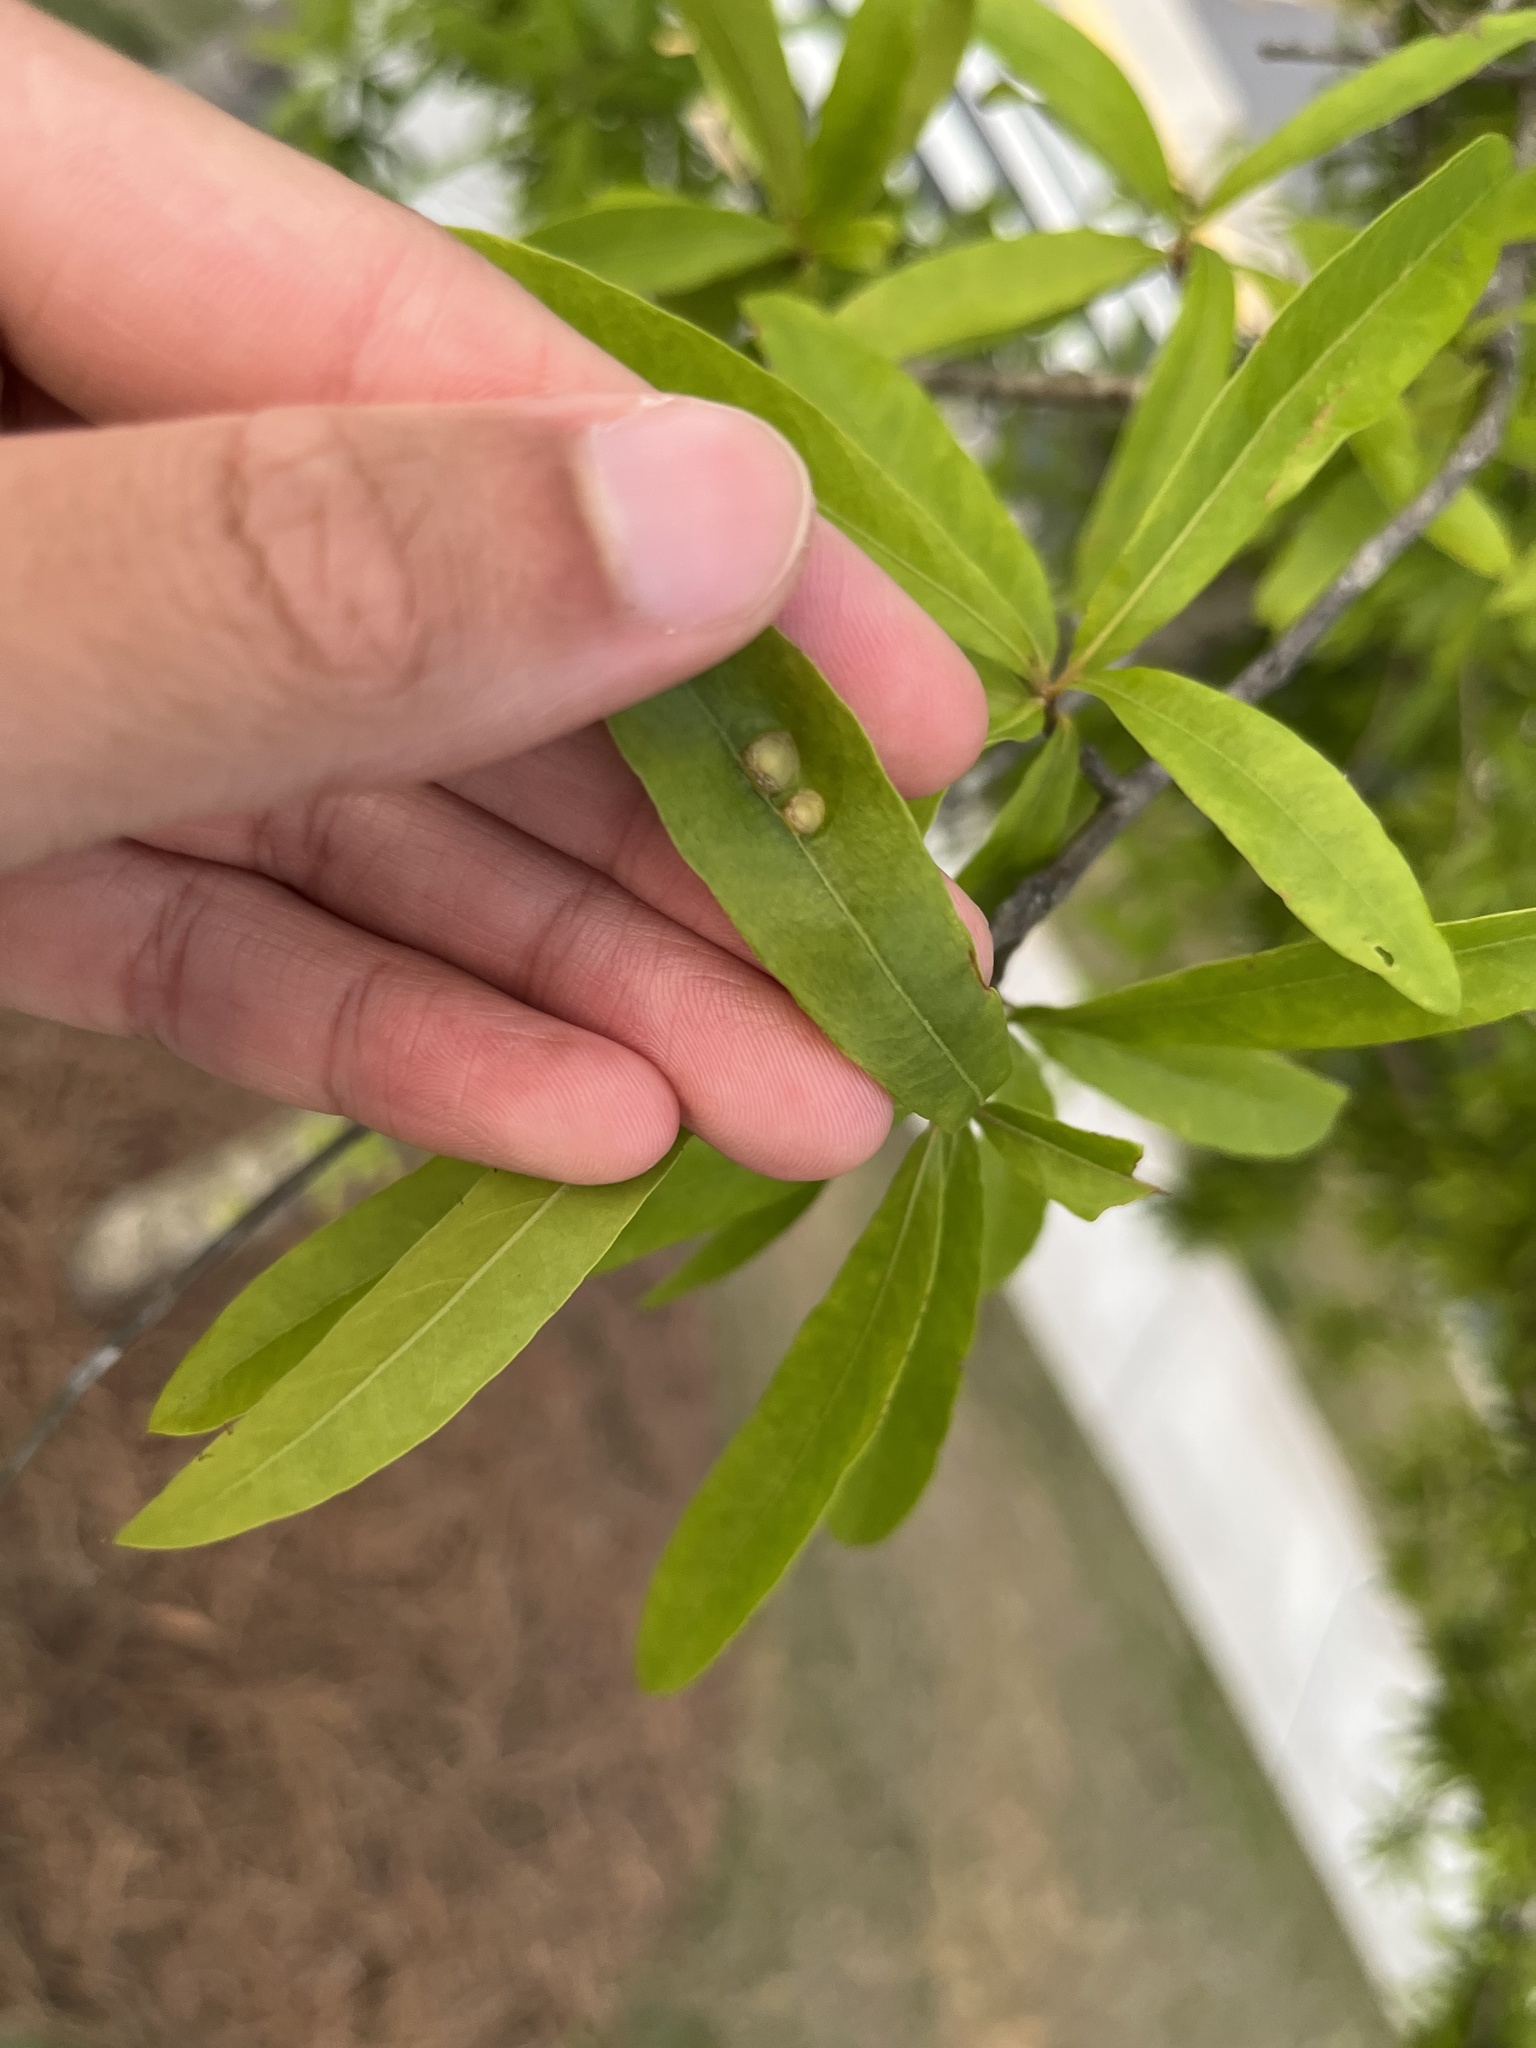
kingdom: Animalia
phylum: Arthropoda
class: Insecta
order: Diptera
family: Cecidomyiidae
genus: Polystepha
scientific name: Polystepha pilulae
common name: Oak leaf gall midge
